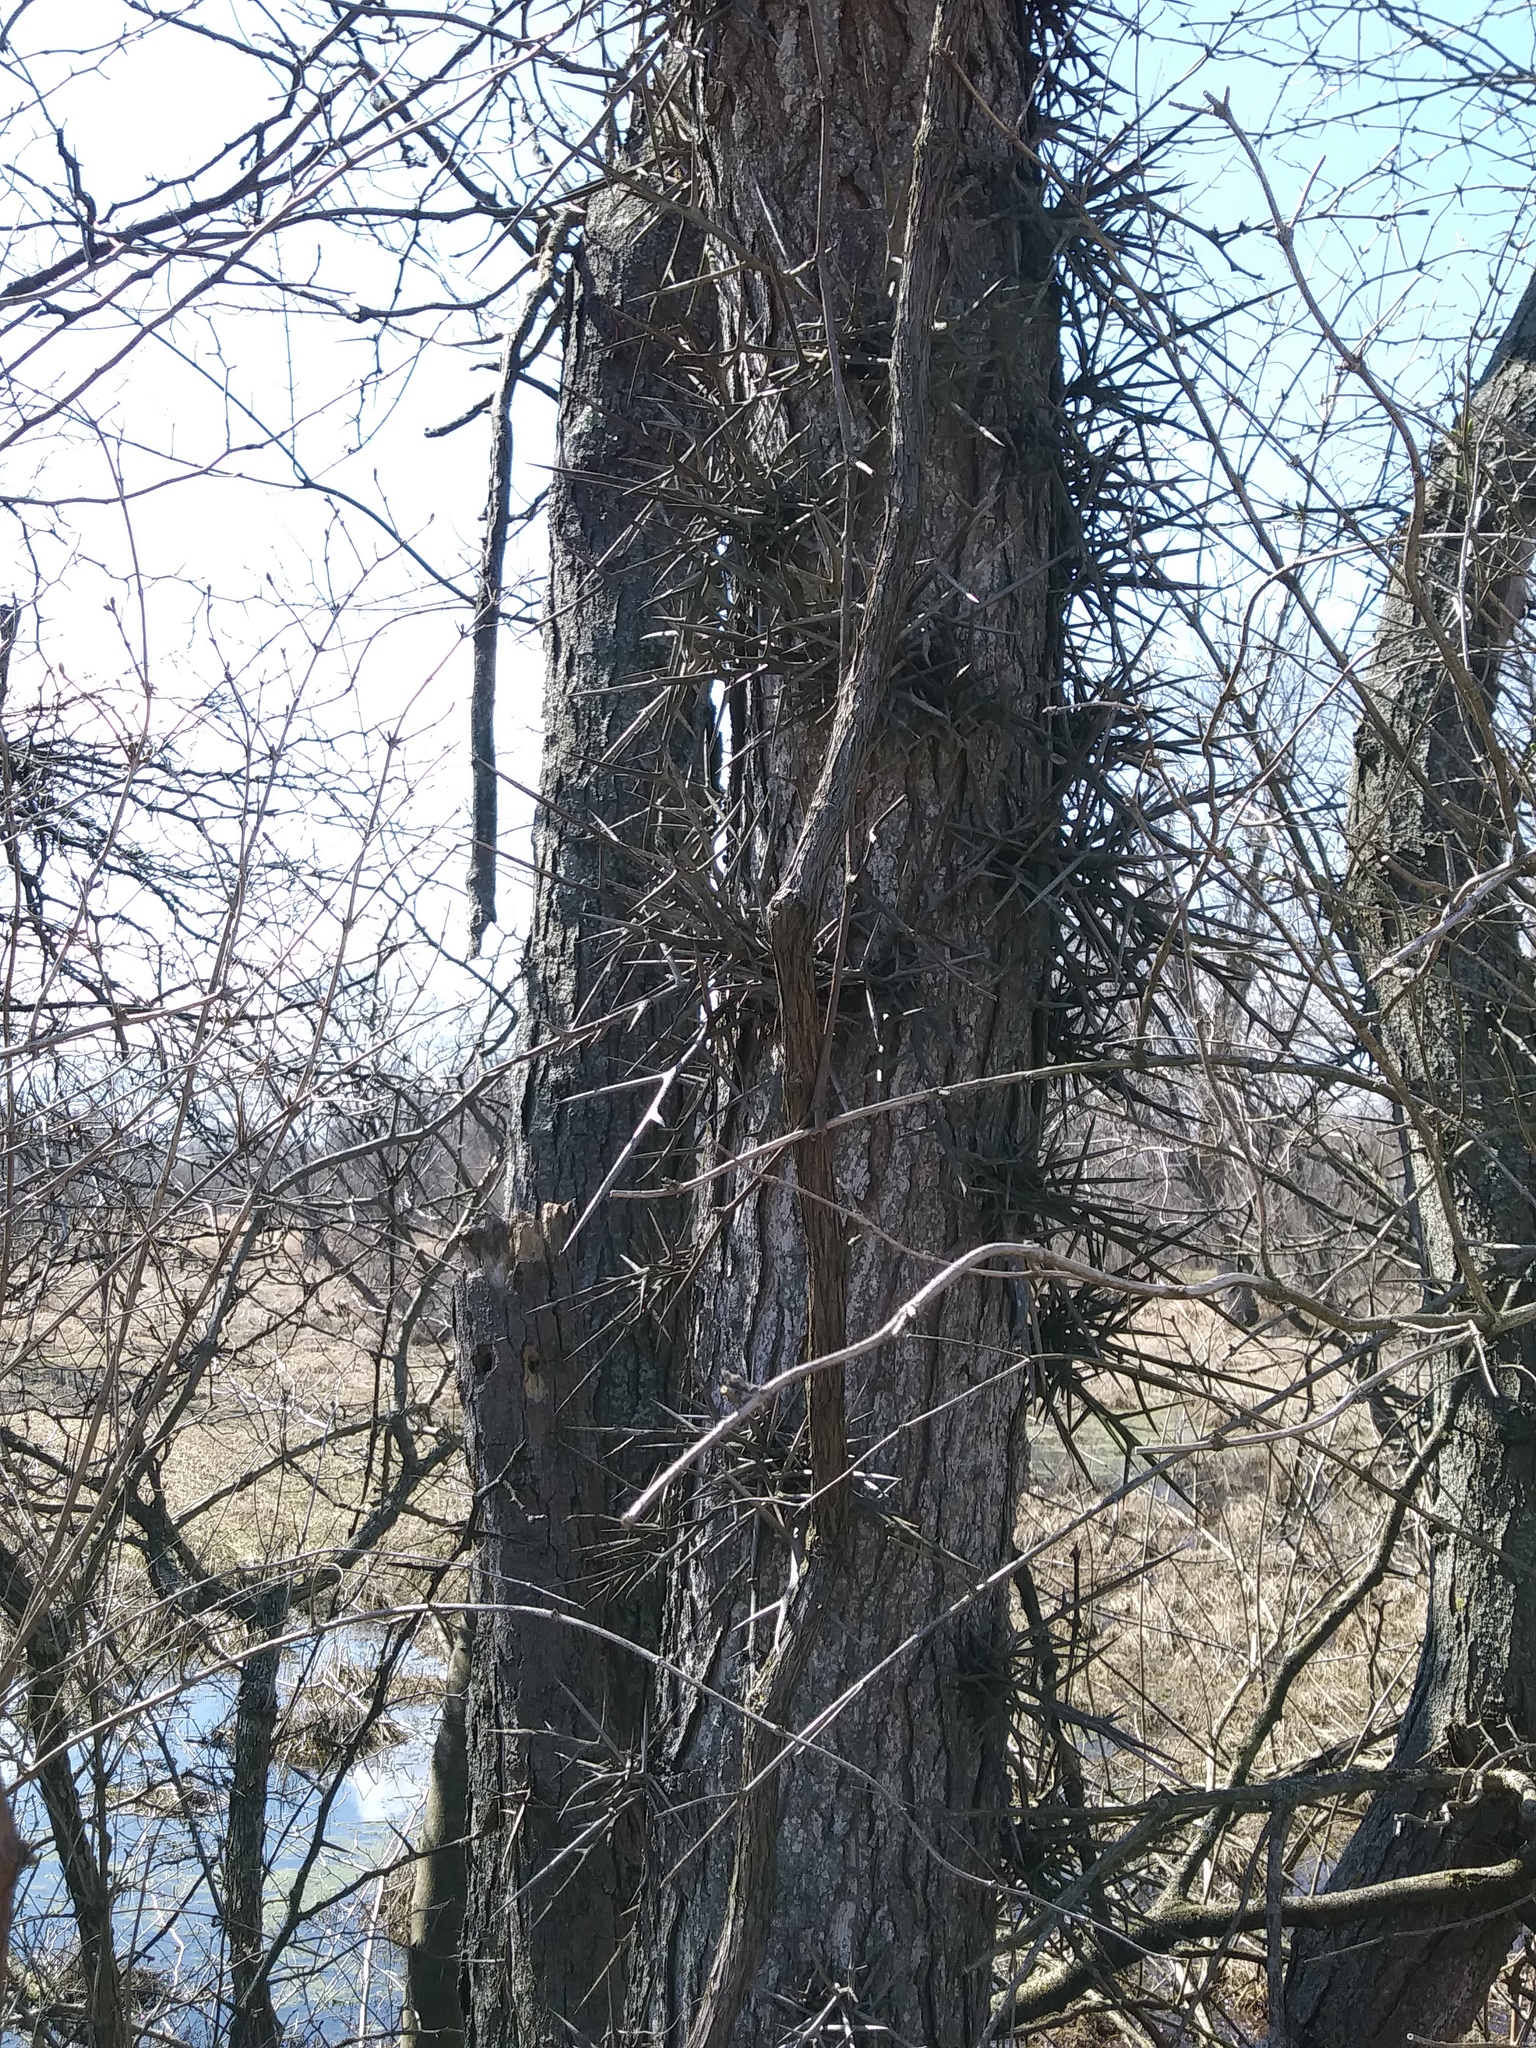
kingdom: Plantae
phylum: Tracheophyta
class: Magnoliopsida
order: Fabales
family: Fabaceae
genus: Gleditsia
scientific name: Gleditsia triacanthos
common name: Common honeylocust
